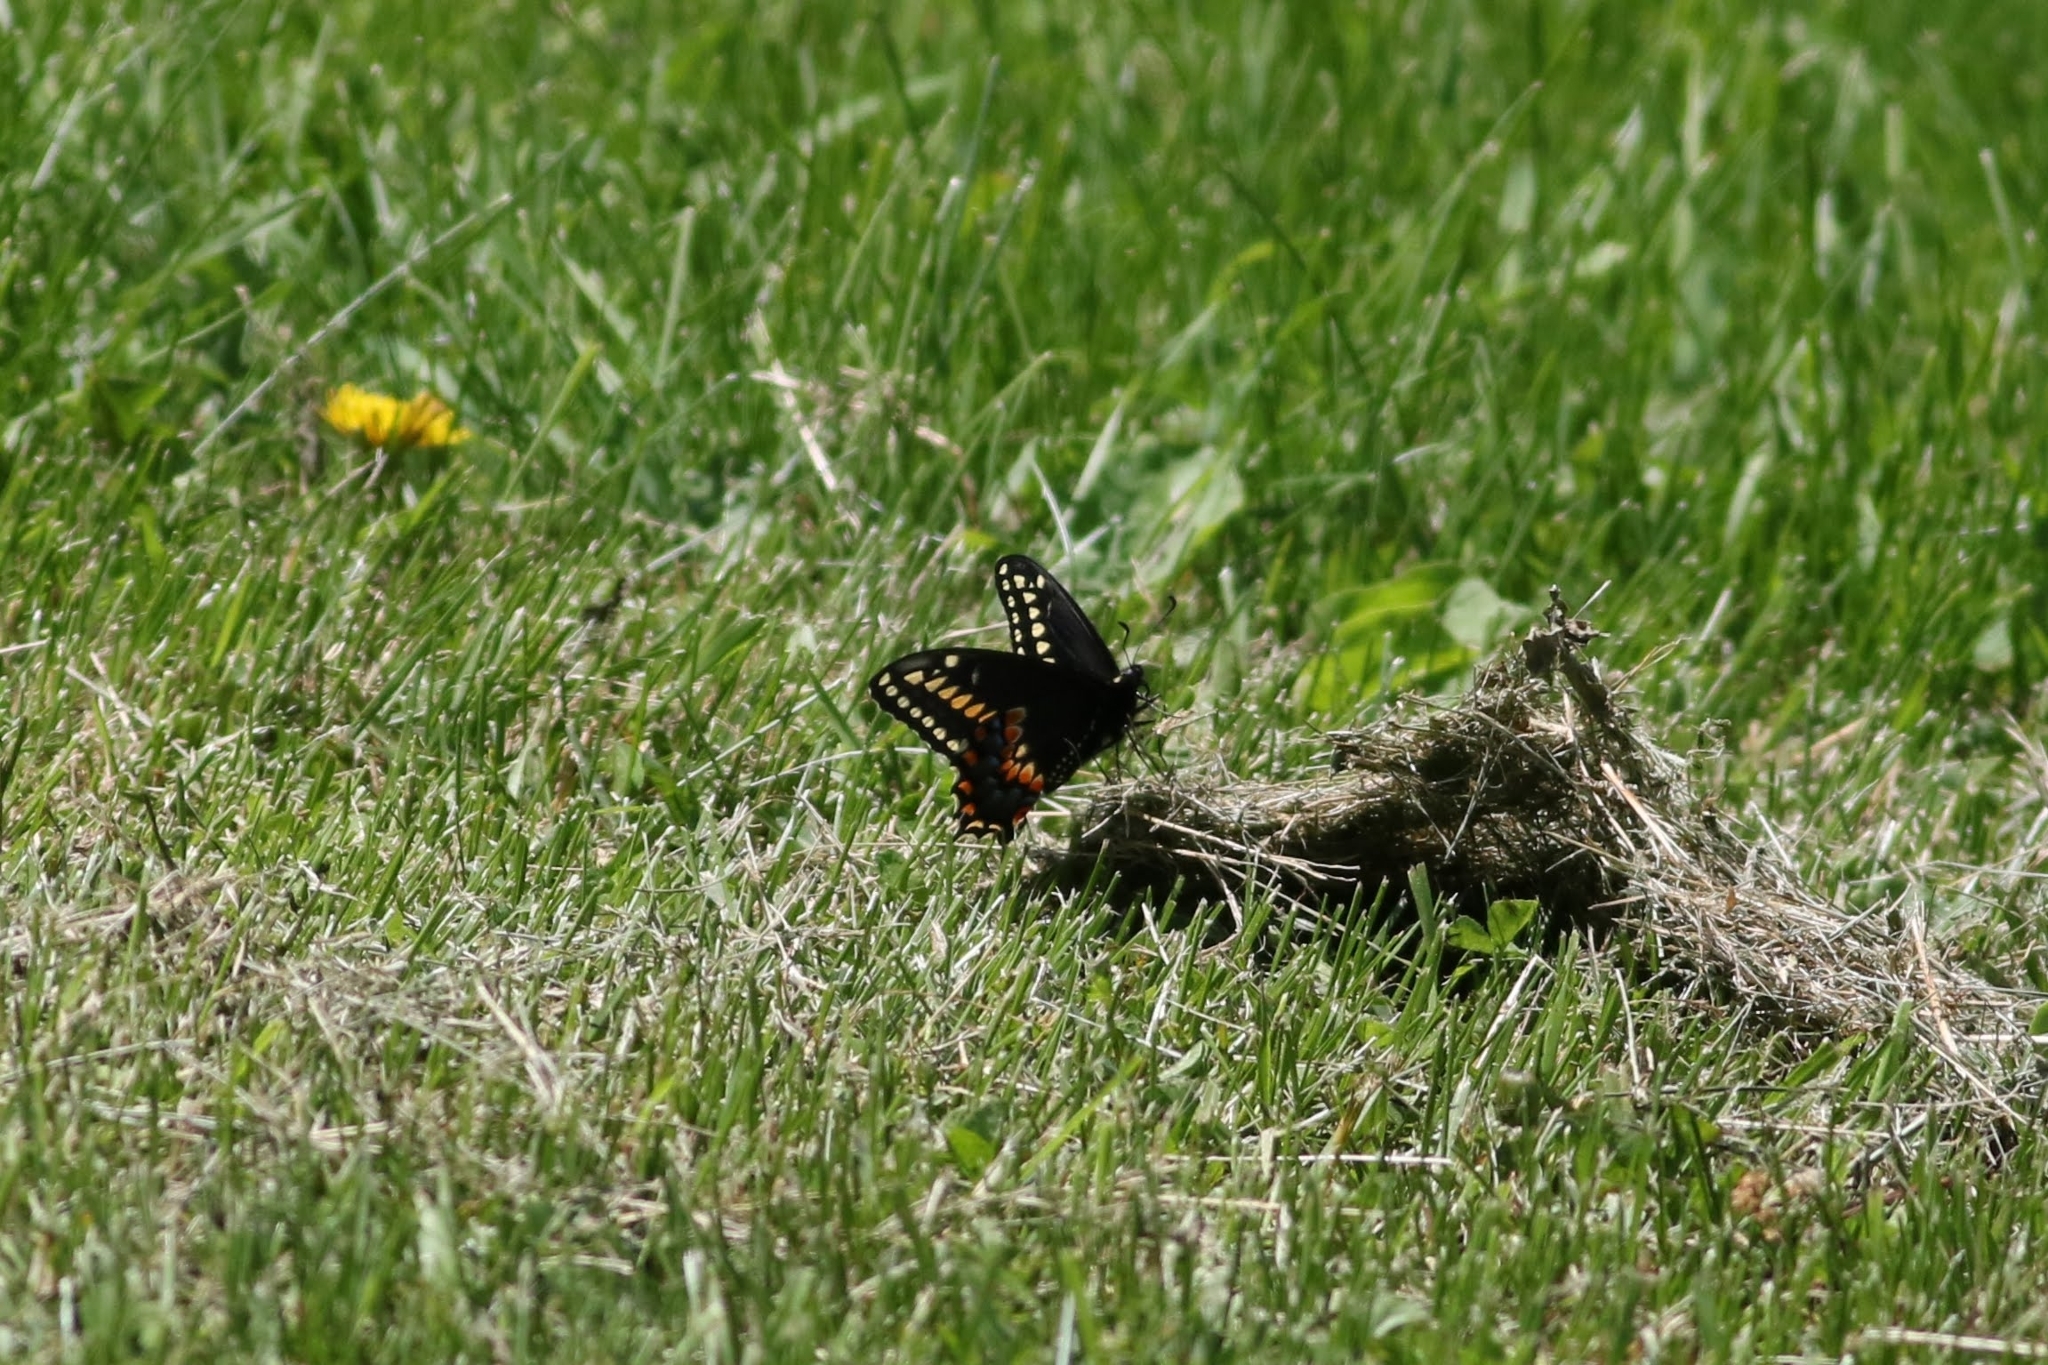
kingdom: Animalia
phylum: Arthropoda
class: Insecta
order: Lepidoptera
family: Papilionidae
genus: Papilio
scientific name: Papilio polyxenes
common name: Black swallowtail
